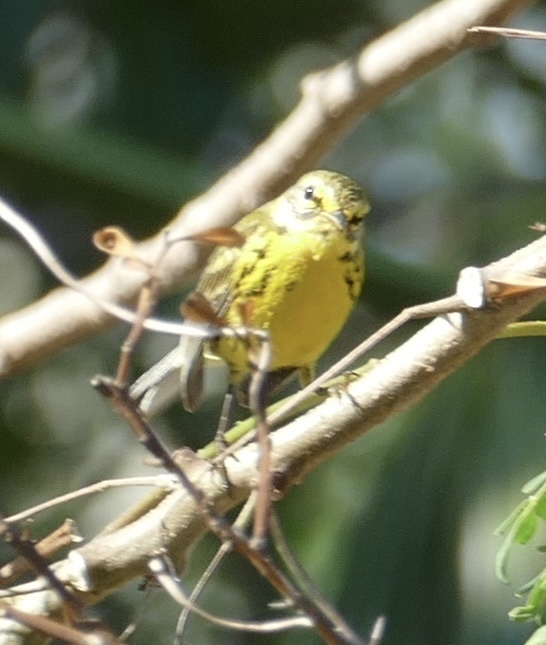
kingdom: Animalia
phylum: Chordata
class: Aves
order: Passeriformes
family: Parulidae
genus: Setophaga
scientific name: Setophaga discolor
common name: Prairie warbler
